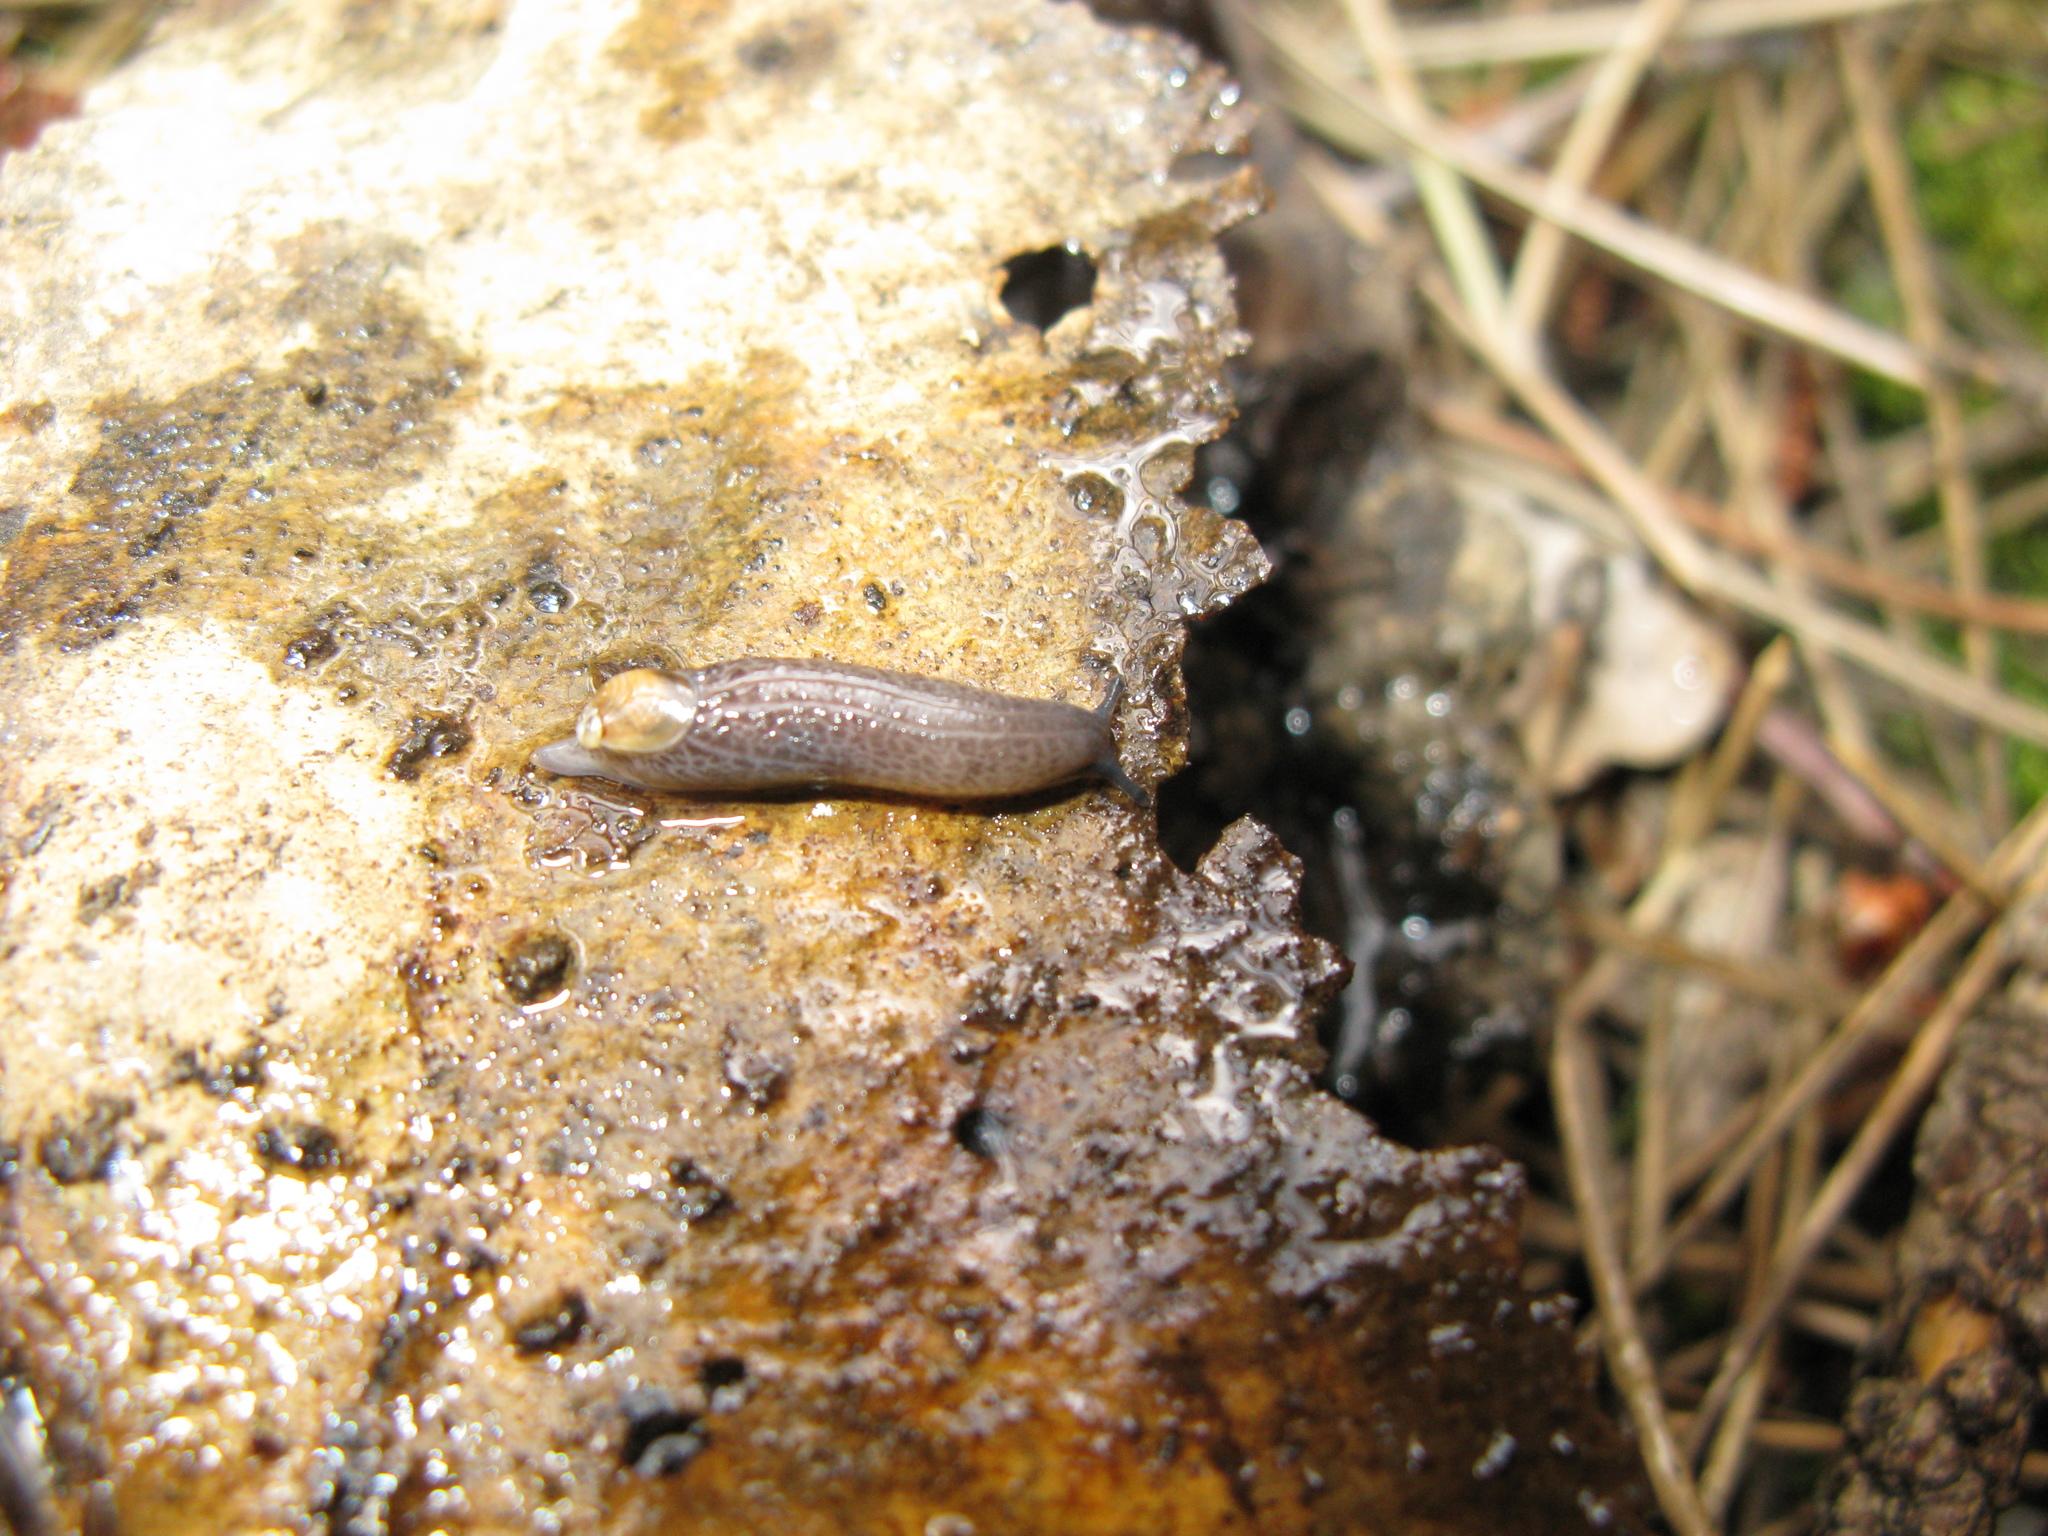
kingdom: Animalia
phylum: Mollusca
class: Gastropoda
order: Stylommatophora
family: Oxychilidae
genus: Carpathica
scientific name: Carpathica boettgeri
